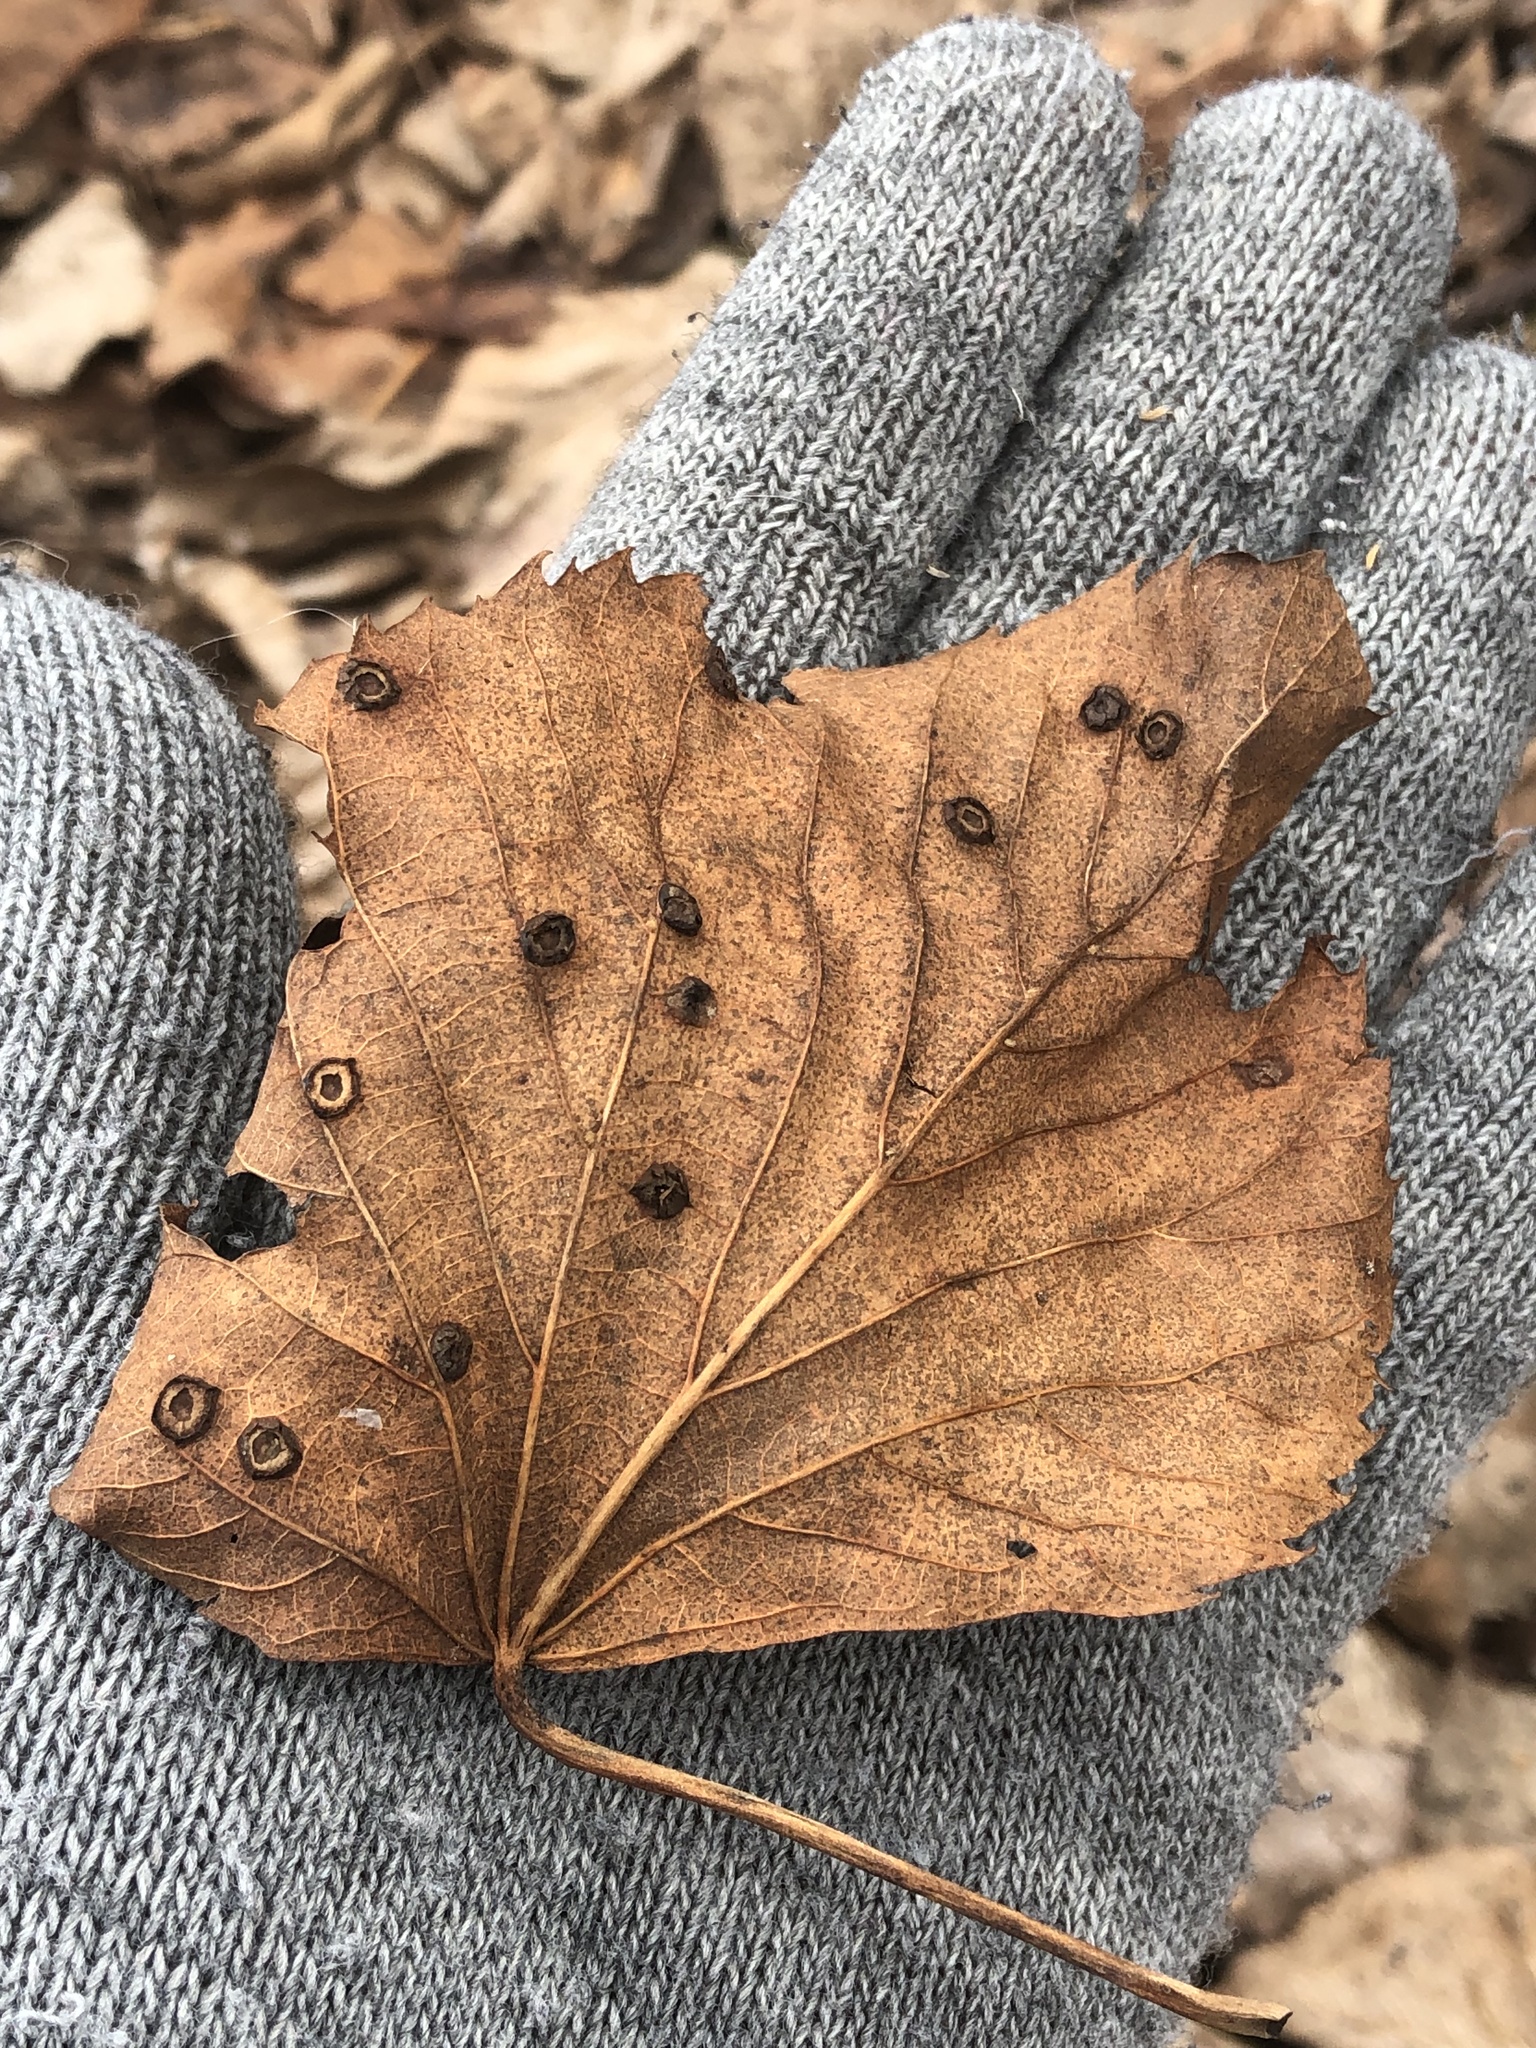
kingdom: Plantae
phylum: Tracheophyta
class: Magnoliopsida
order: Malvales
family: Malvaceae
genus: Tilia
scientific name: Tilia americana
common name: Basswood
